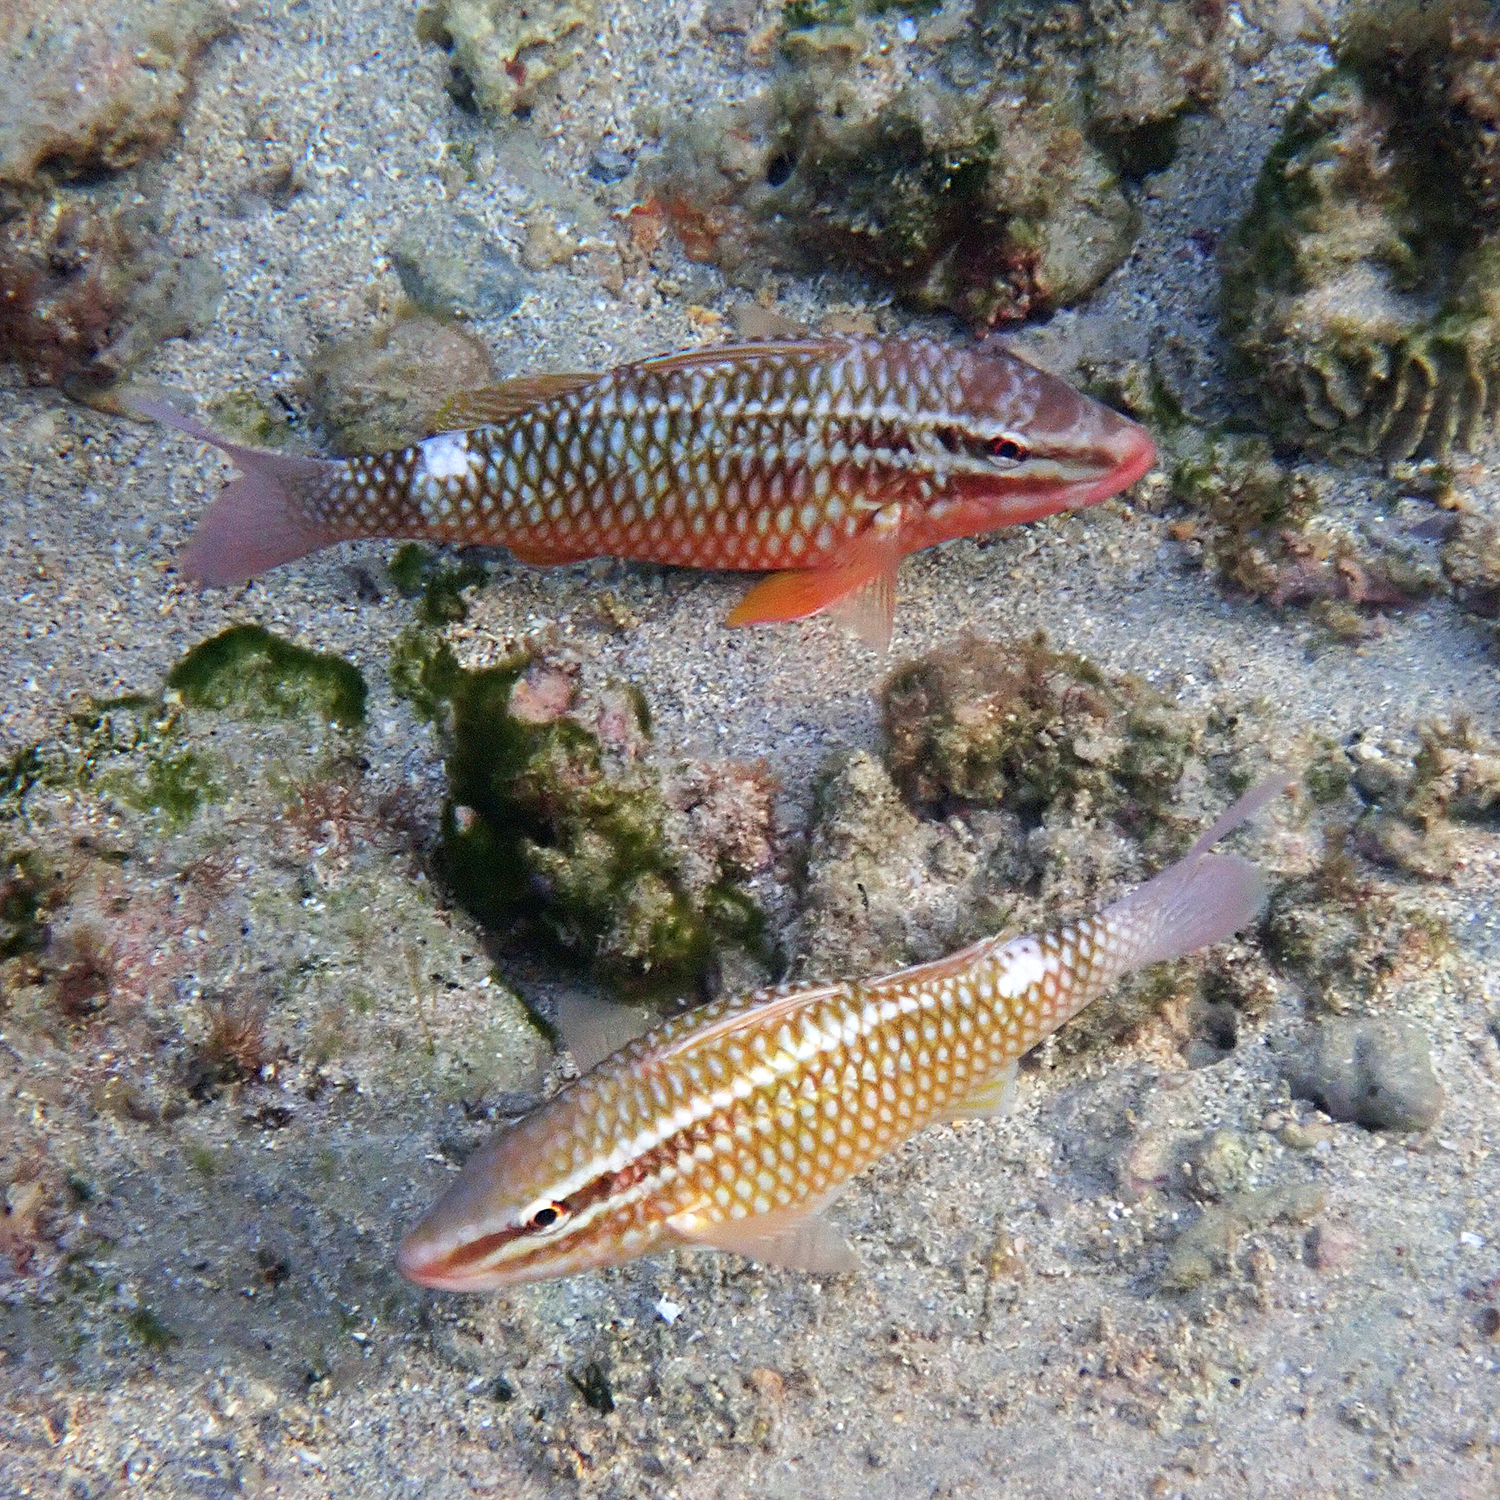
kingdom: Animalia
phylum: Chordata
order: Perciformes
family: Mullidae
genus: Parupeneus
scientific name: Parupeneus ciliatus
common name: White-lined goatfish
